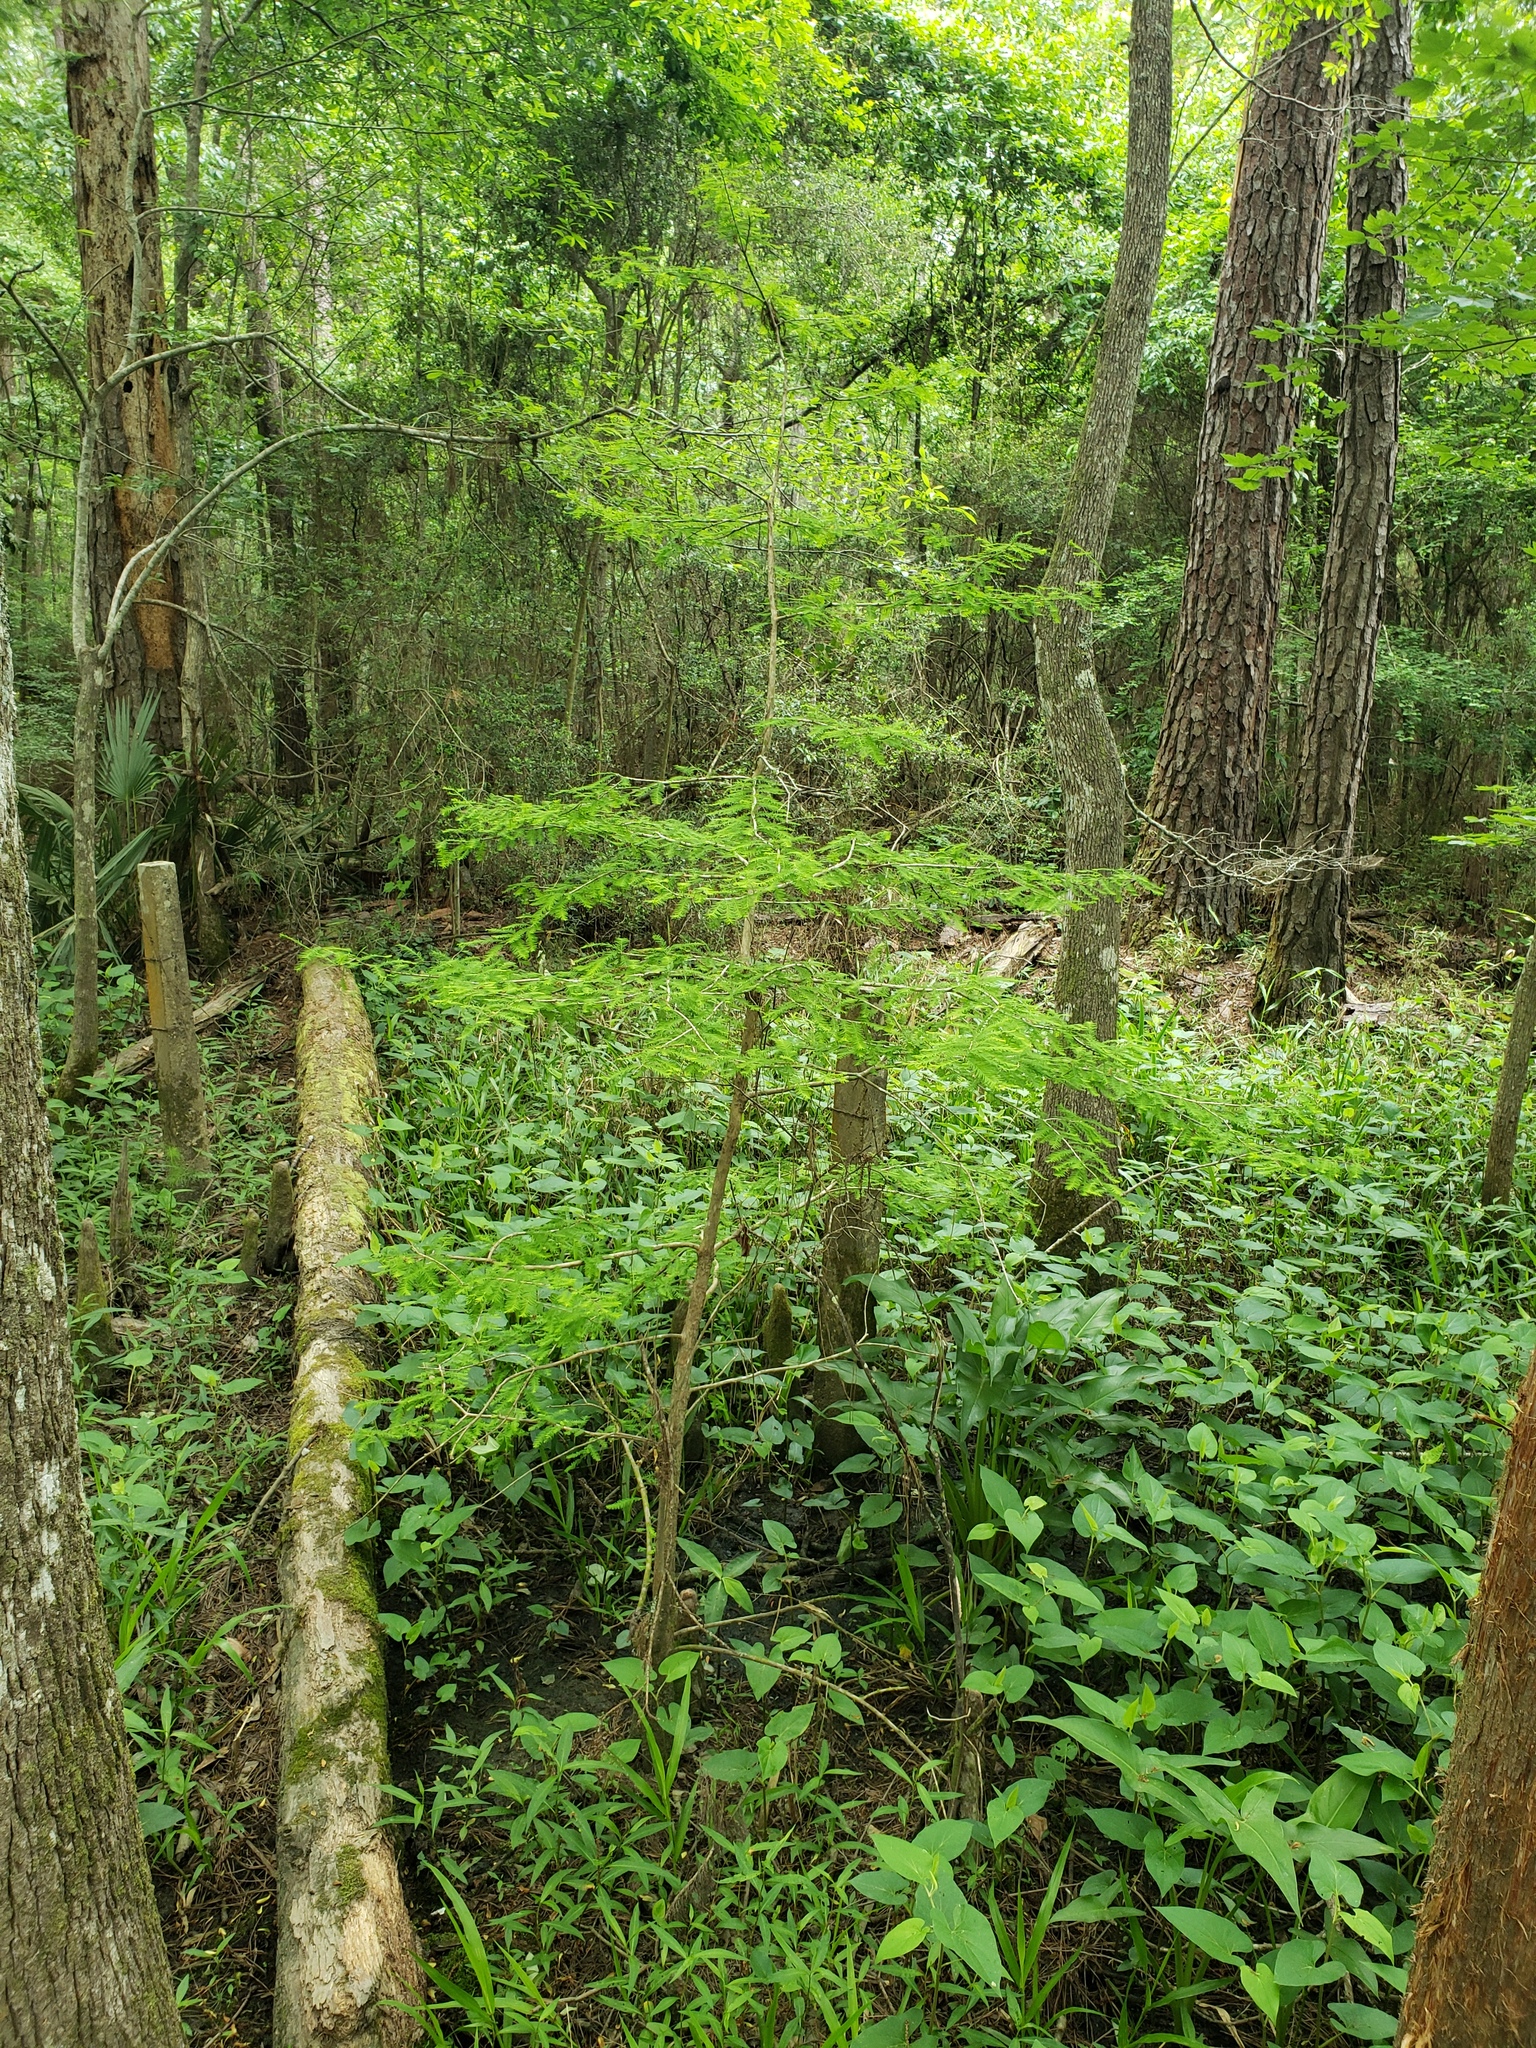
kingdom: Plantae
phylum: Tracheophyta
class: Pinopsida
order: Pinales
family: Cupressaceae
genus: Taxodium
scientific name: Taxodium distichum
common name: Bald cypress
